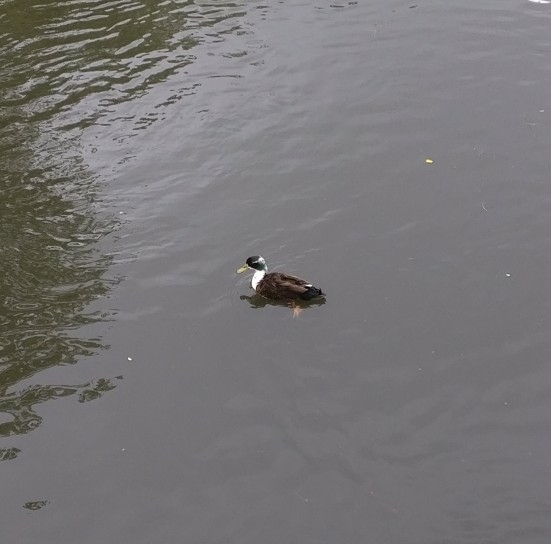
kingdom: Animalia
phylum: Chordata
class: Aves
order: Anseriformes
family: Anatidae
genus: Anas
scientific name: Anas platyrhynchos
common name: Mallard
